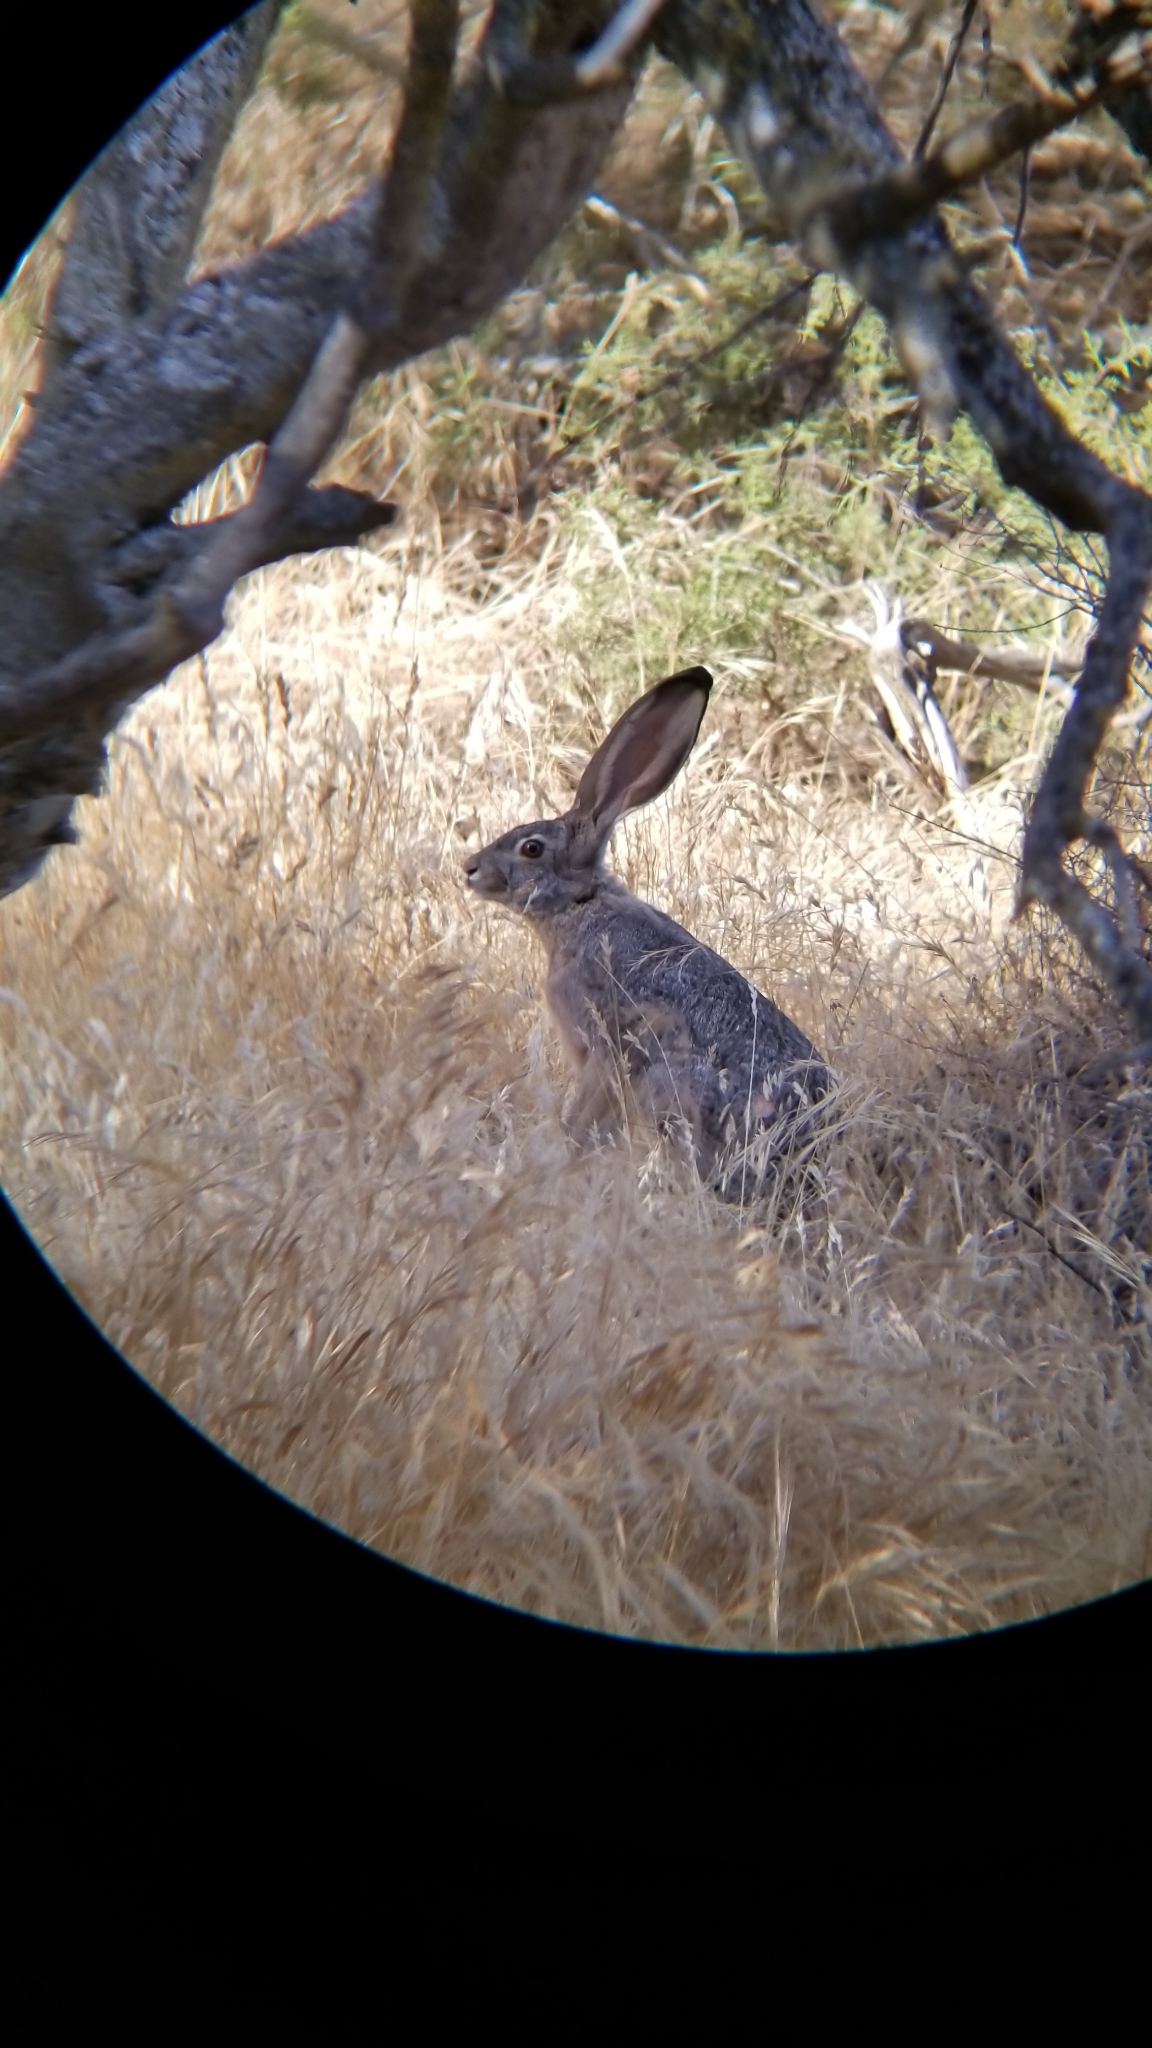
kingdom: Animalia
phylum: Chordata
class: Mammalia
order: Lagomorpha
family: Leporidae
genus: Lepus
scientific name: Lepus californicus
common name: Black-tailed jackrabbit
